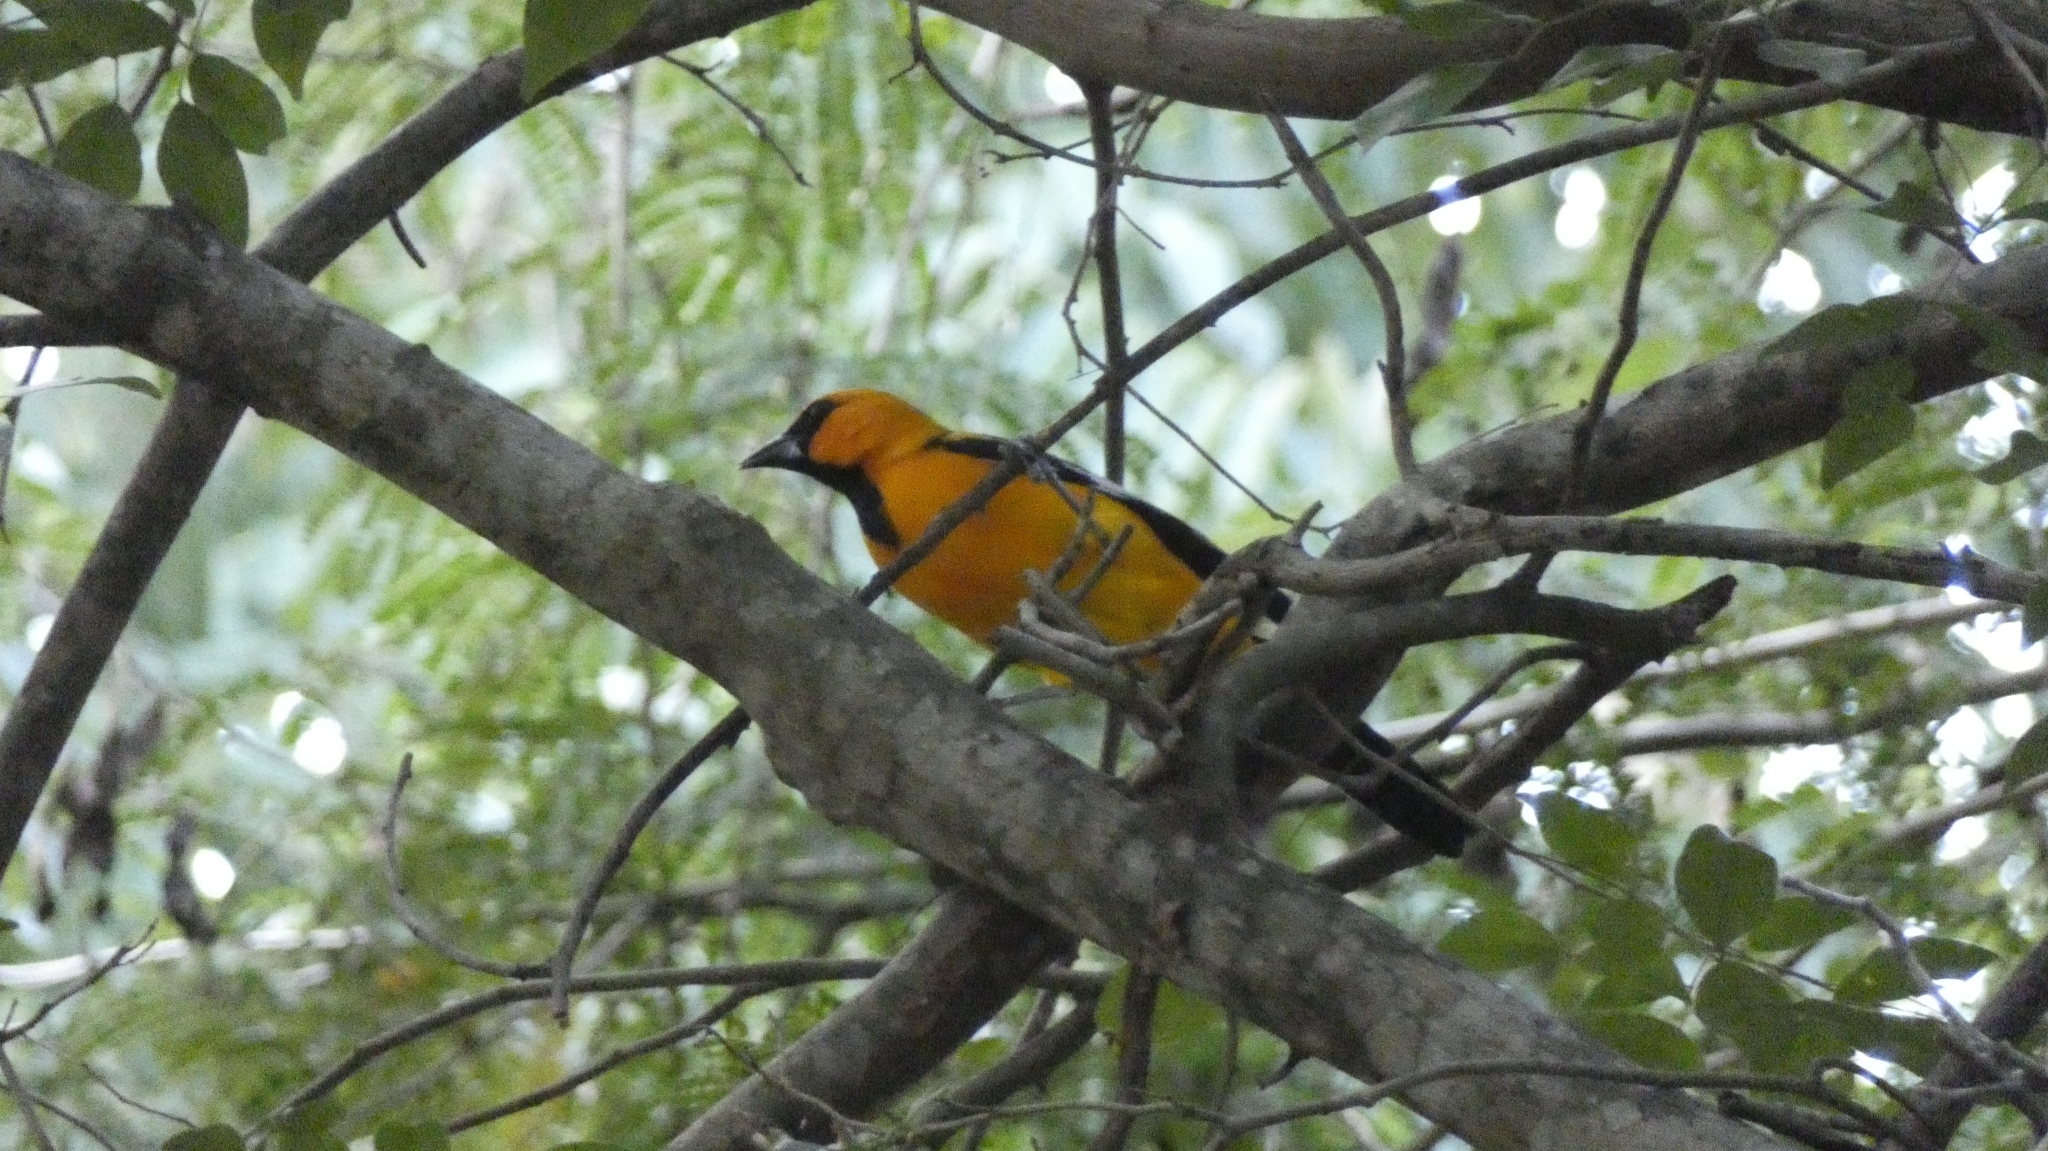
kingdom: Animalia
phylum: Chordata
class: Aves
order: Passeriformes
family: Icteridae
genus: Icterus
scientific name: Icterus gularis
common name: Altamira oriole
